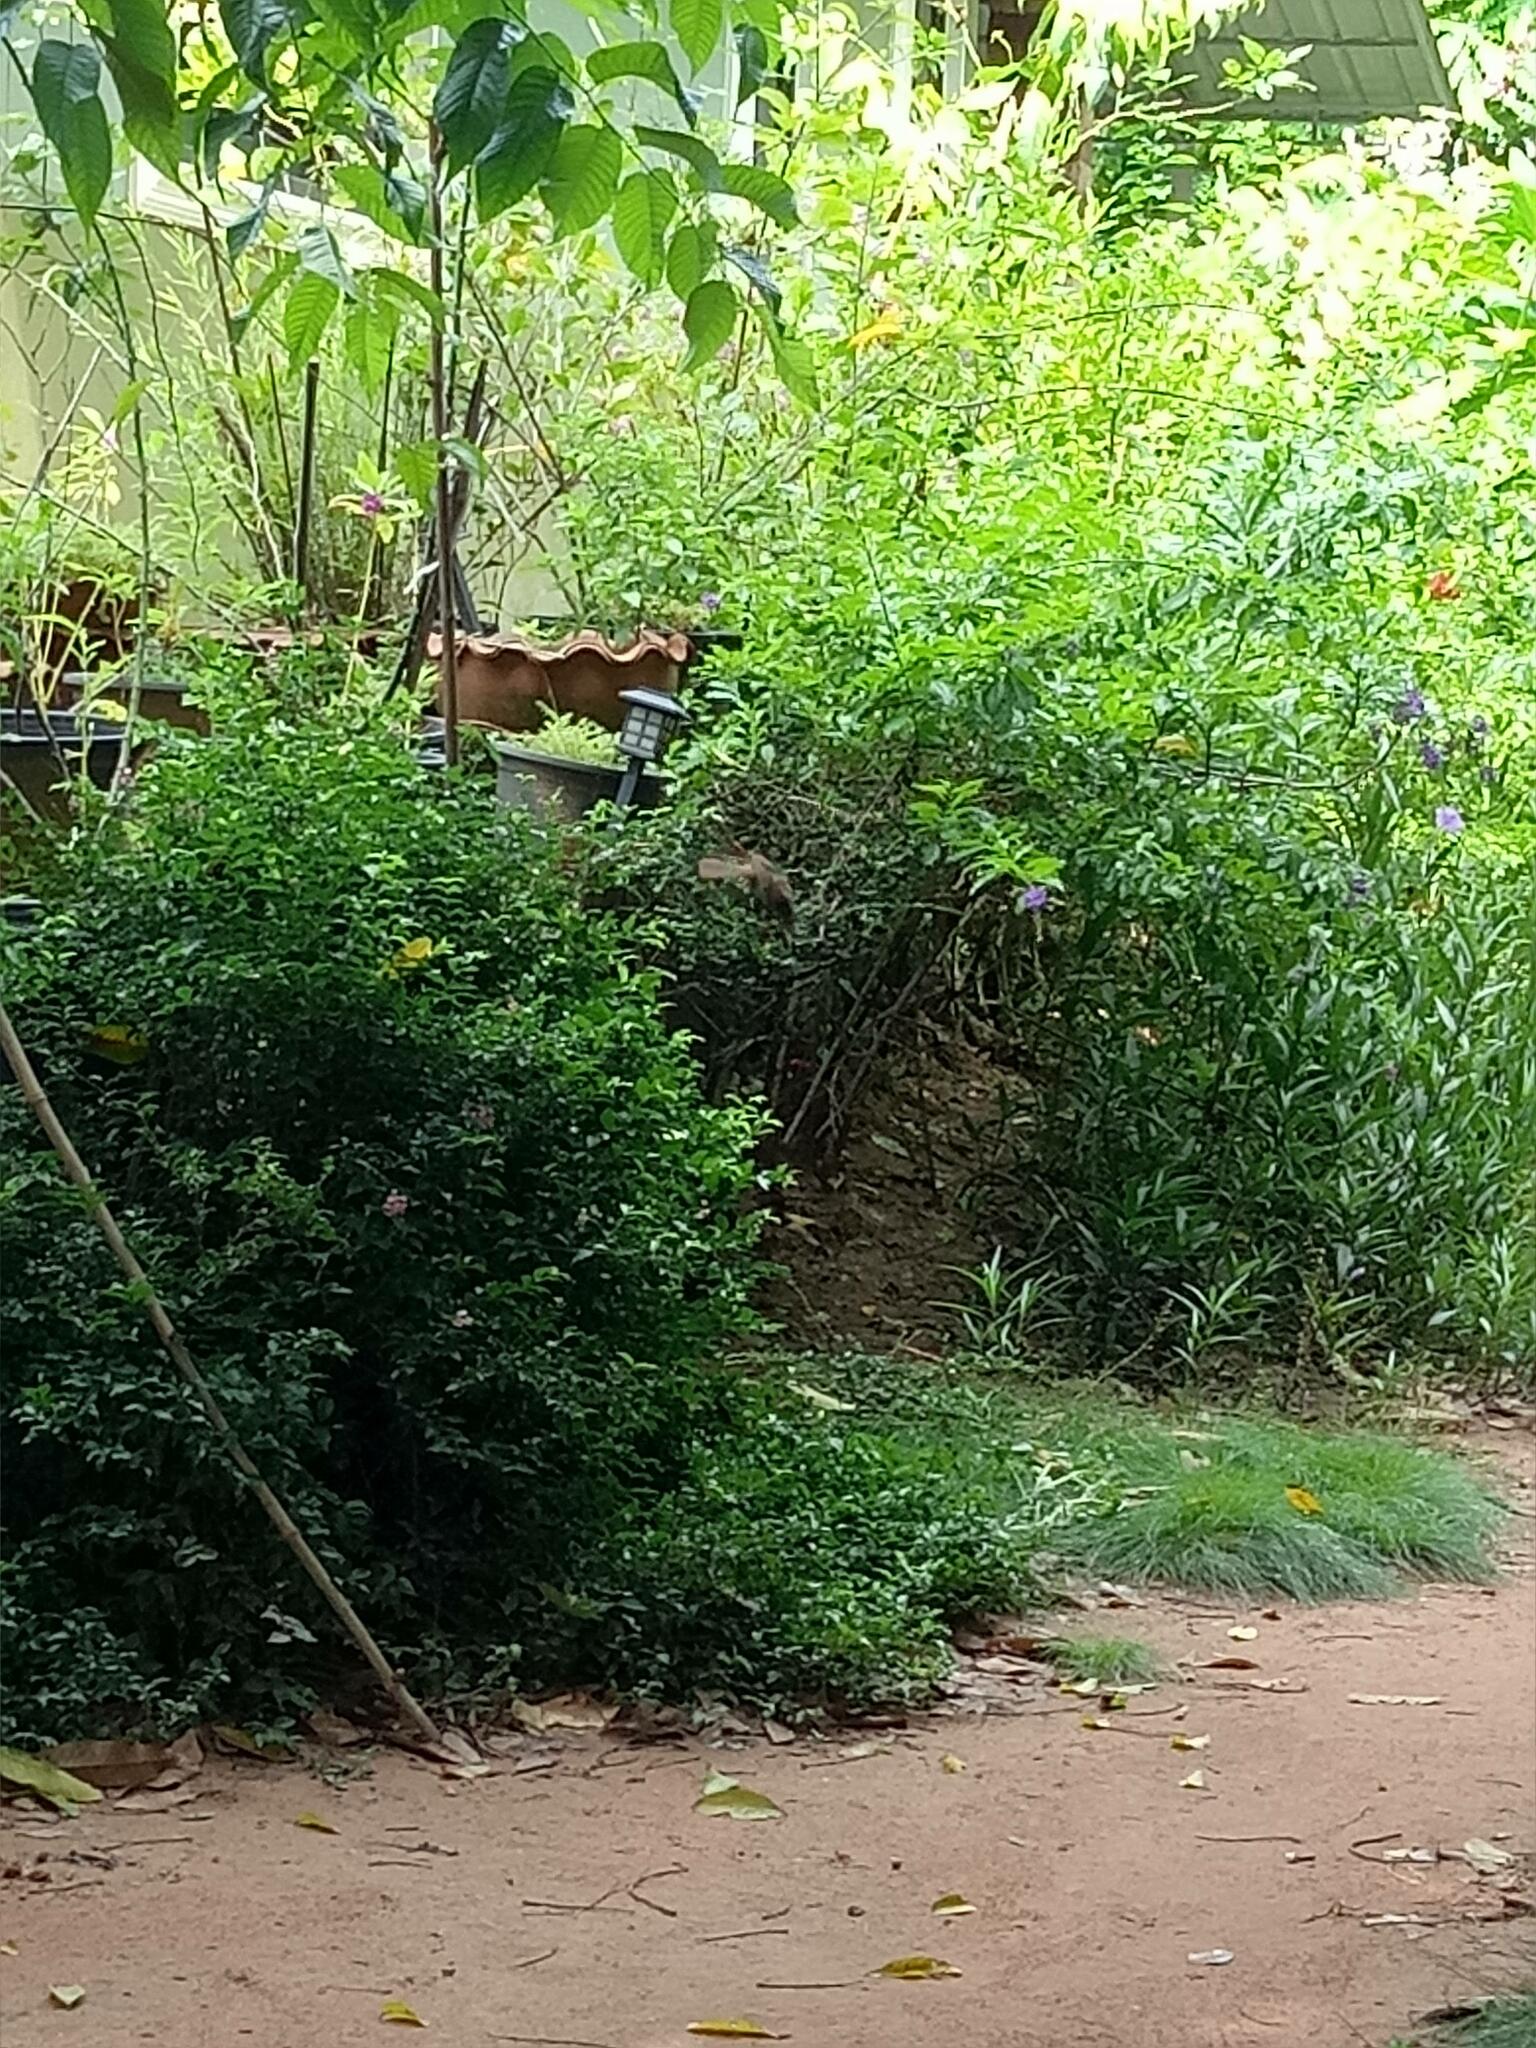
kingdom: Animalia
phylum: Chordata
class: Aves
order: Passeriformes
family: Pycnonotidae
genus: Pycnonotus
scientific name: Pycnonotus goiavier
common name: Yellow-vented bulbul
